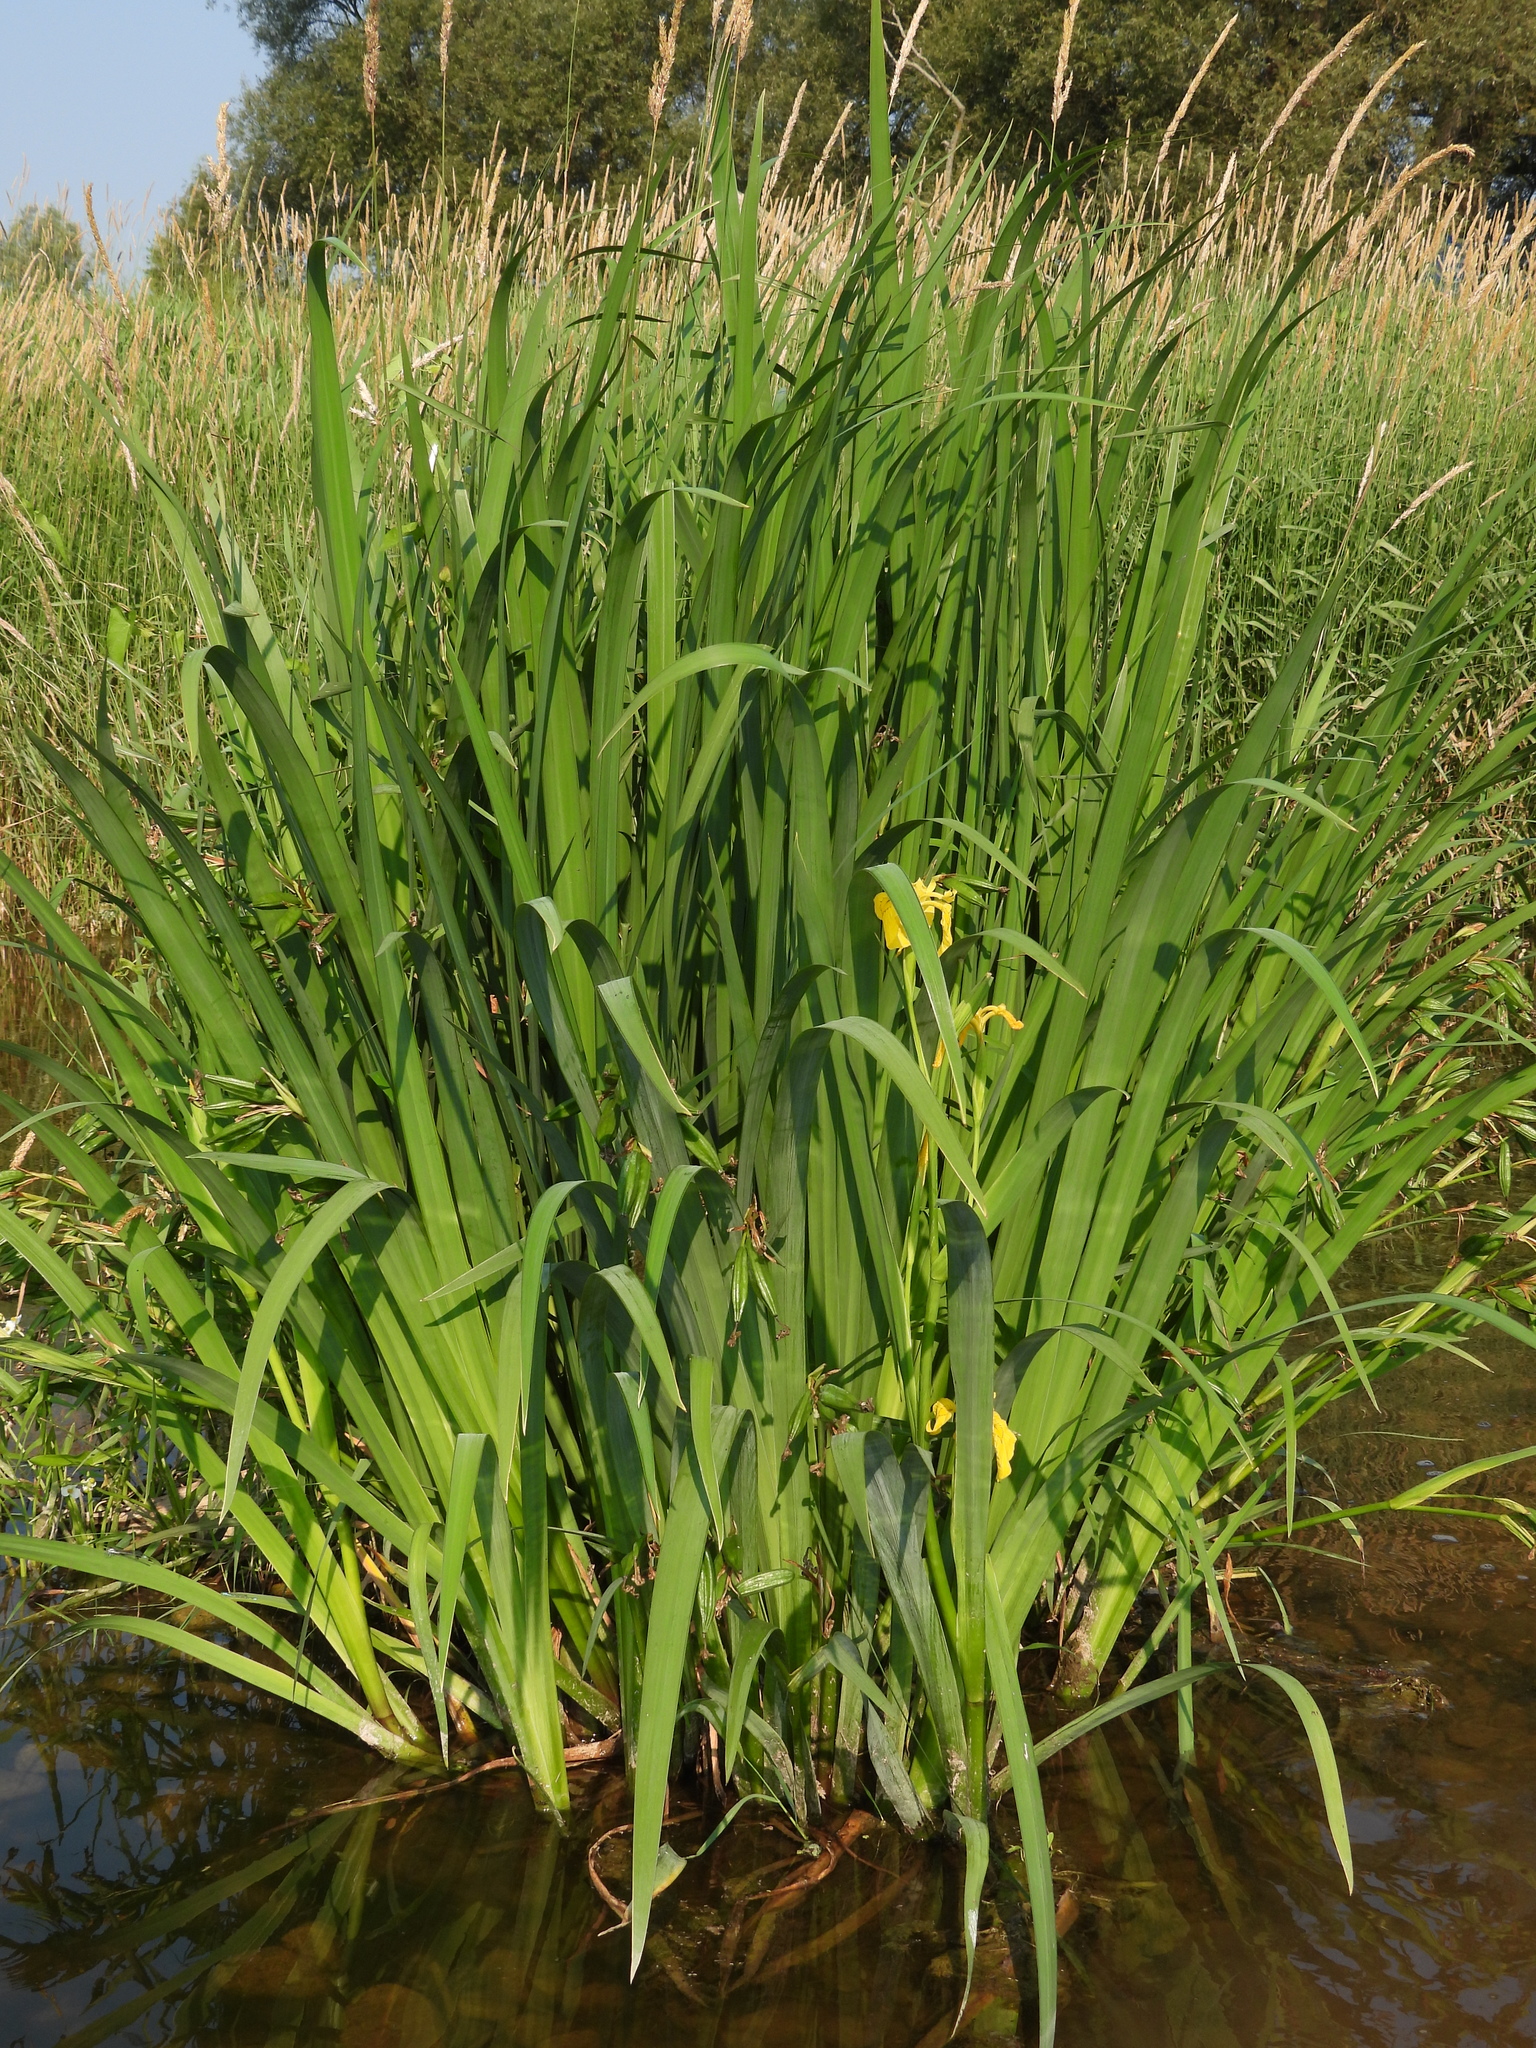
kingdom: Plantae
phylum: Tracheophyta
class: Liliopsida
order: Asparagales
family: Iridaceae
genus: Iris
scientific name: Iris pseudacorus
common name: Yellow flag
